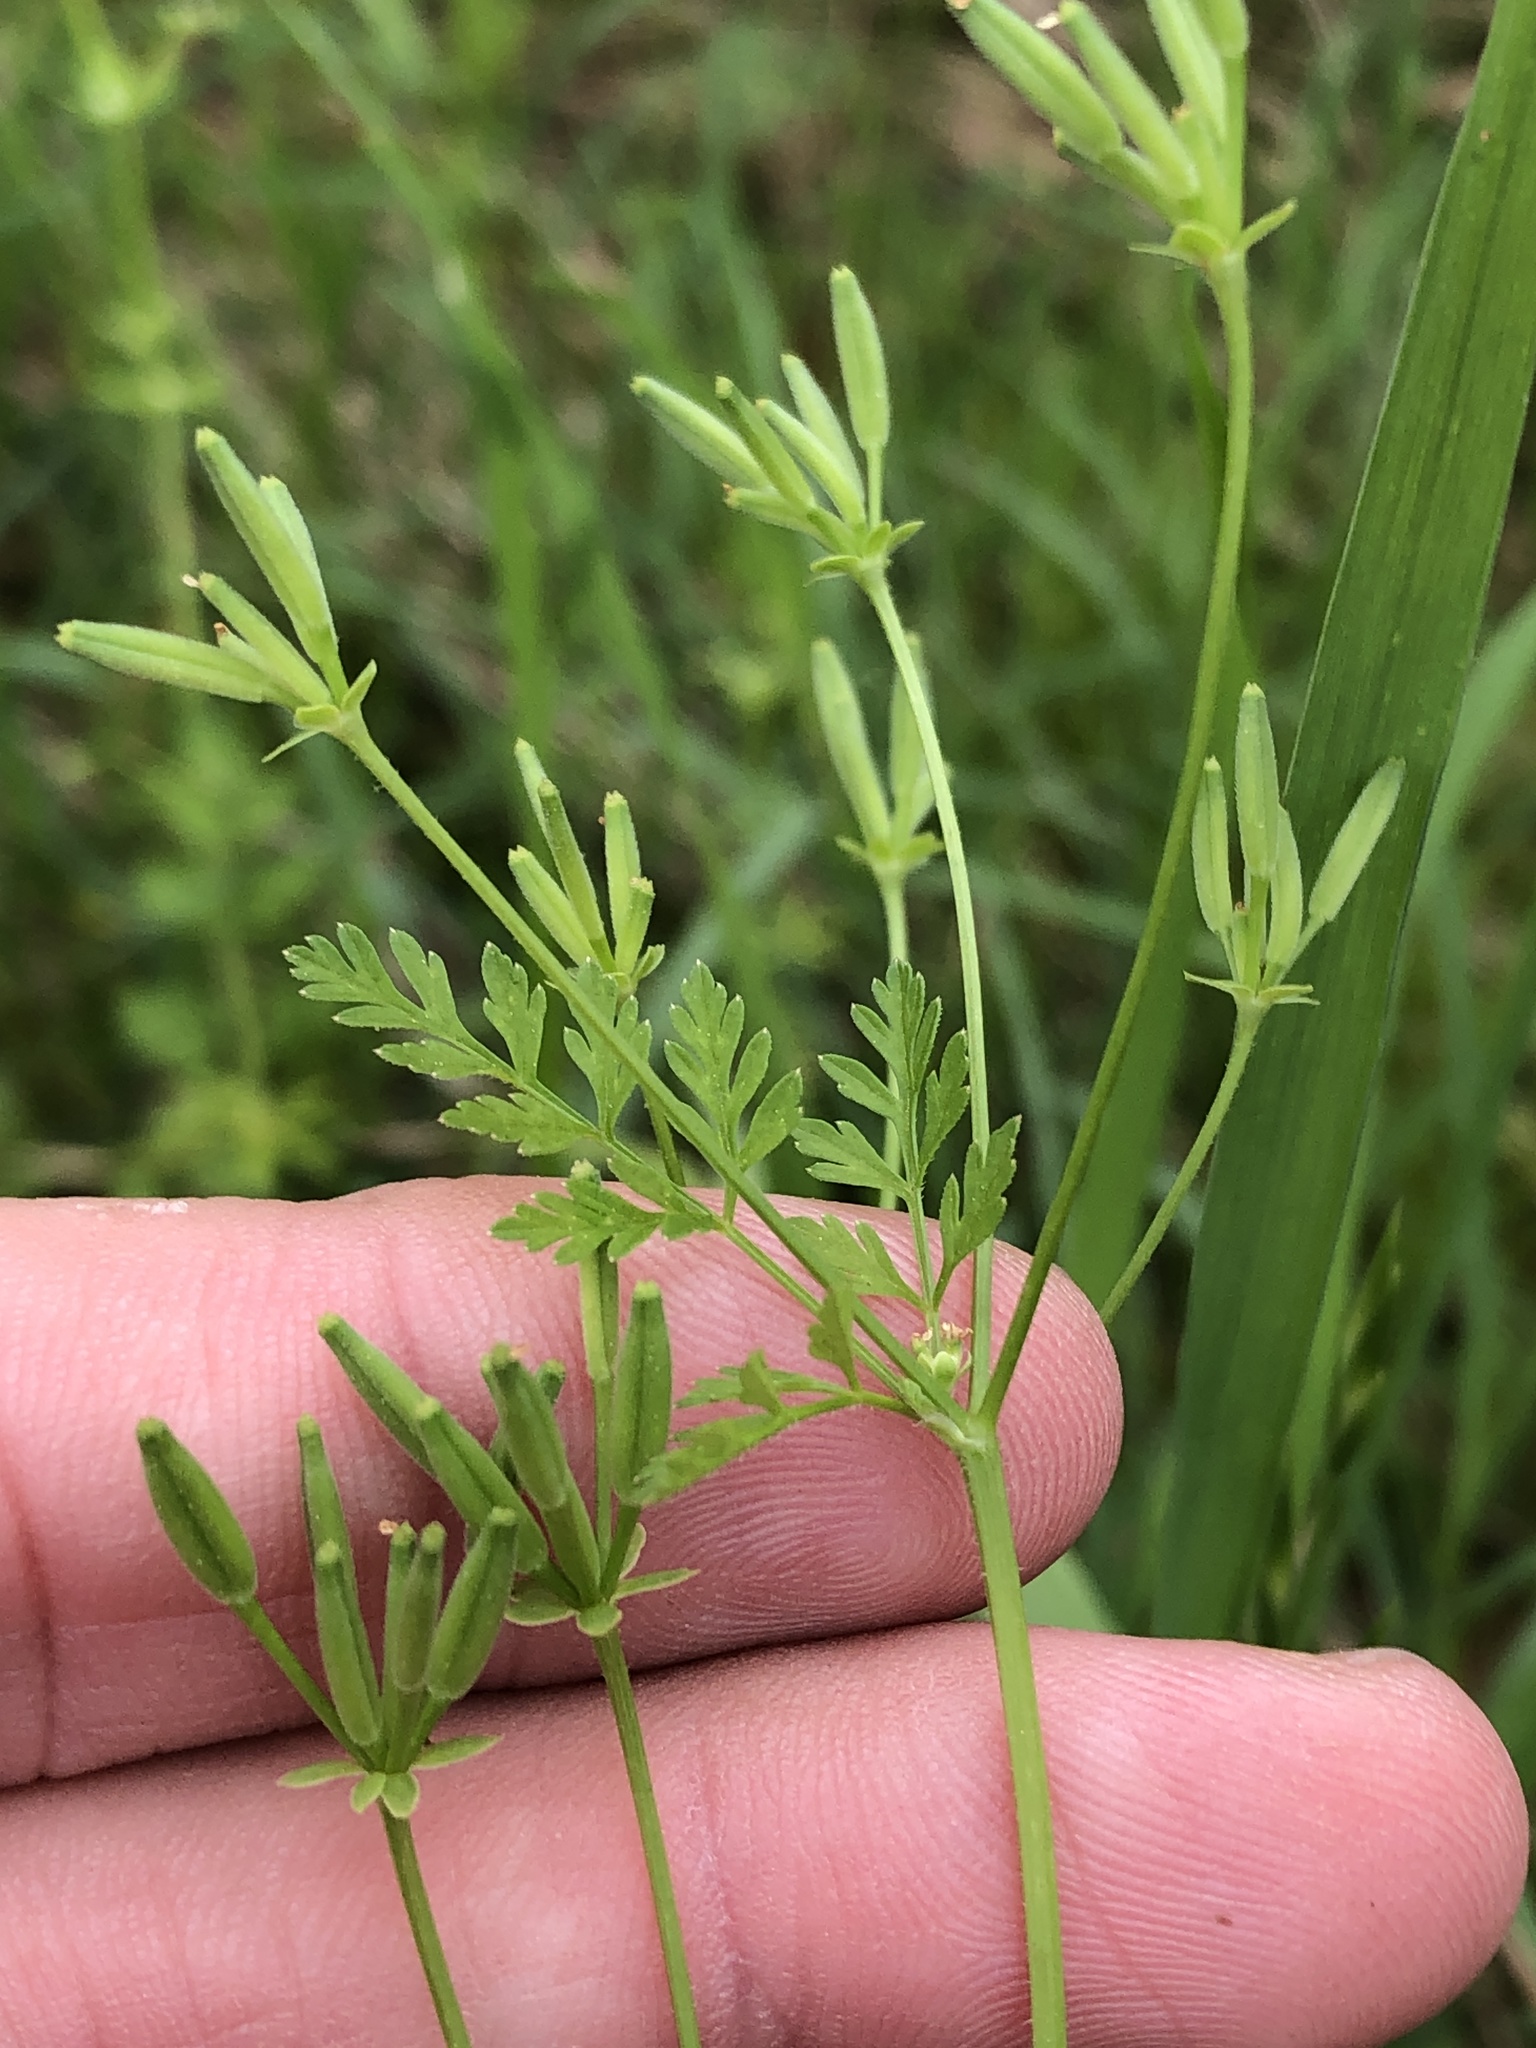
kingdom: Plantae
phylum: Tracheophyta
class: Magnoliopsida
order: Apiales
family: Apiaceae
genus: Chaerophyllum
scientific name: Chaerophyllum tainturieri
